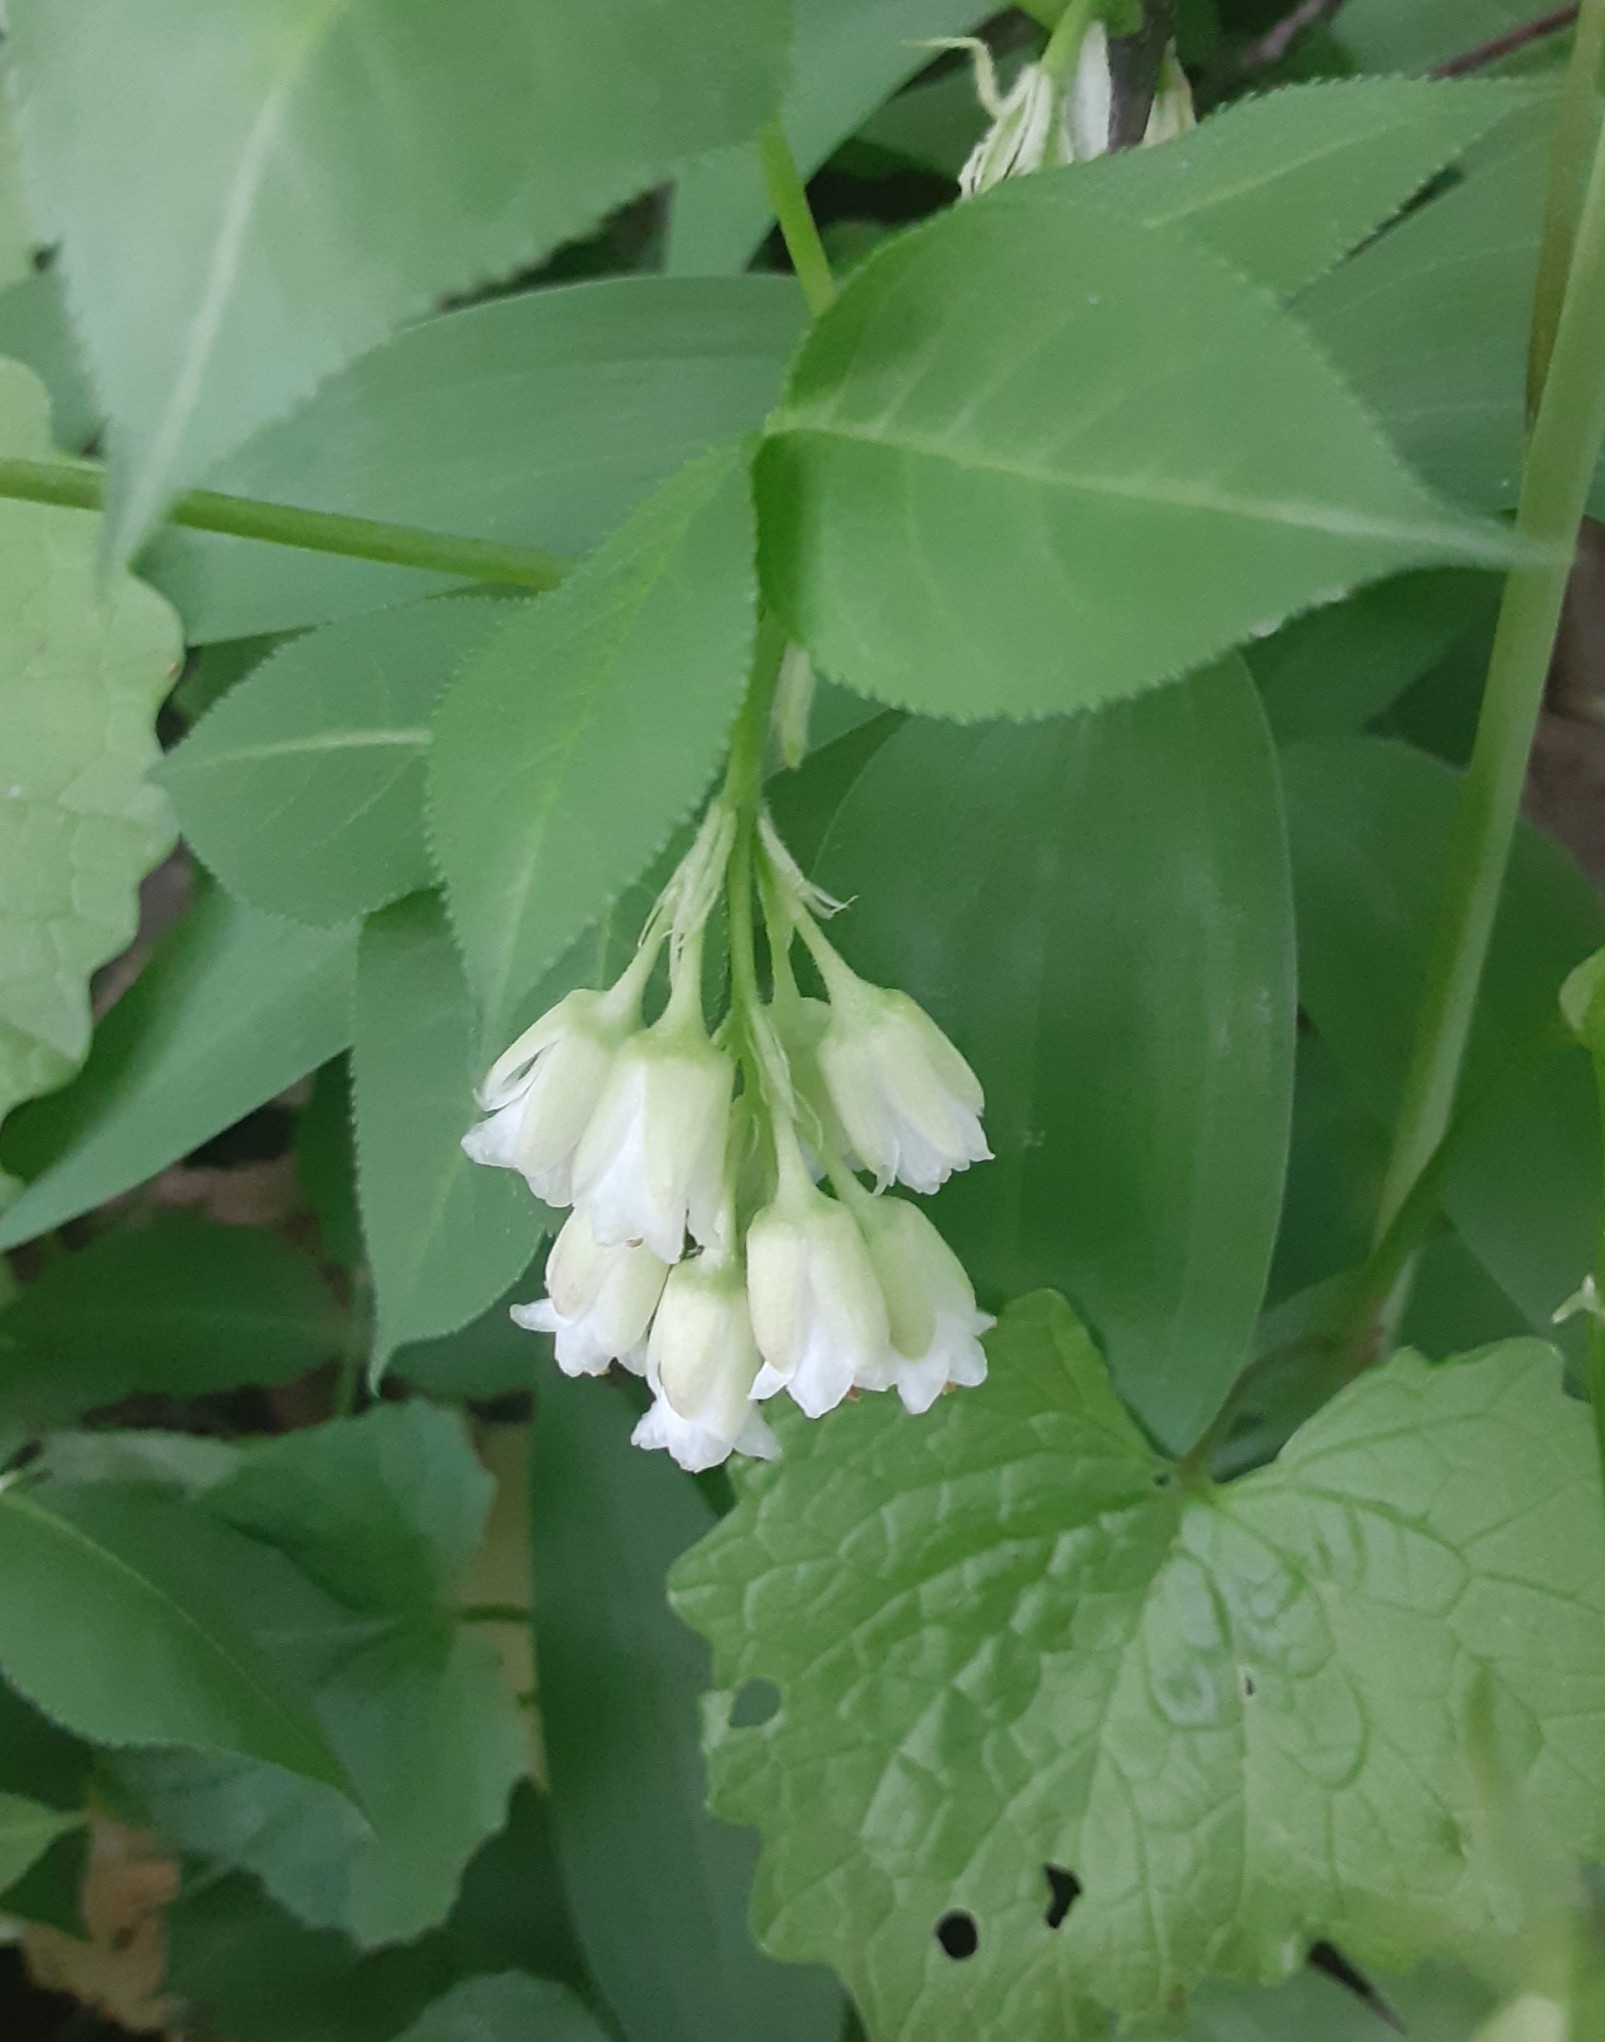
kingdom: Plantae
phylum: Tracheophyta
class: Magnoliopsida
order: Crossosomatales
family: Staphyleaceae
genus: Staphylea
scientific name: Staphylea trifolia
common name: American bladdernut
